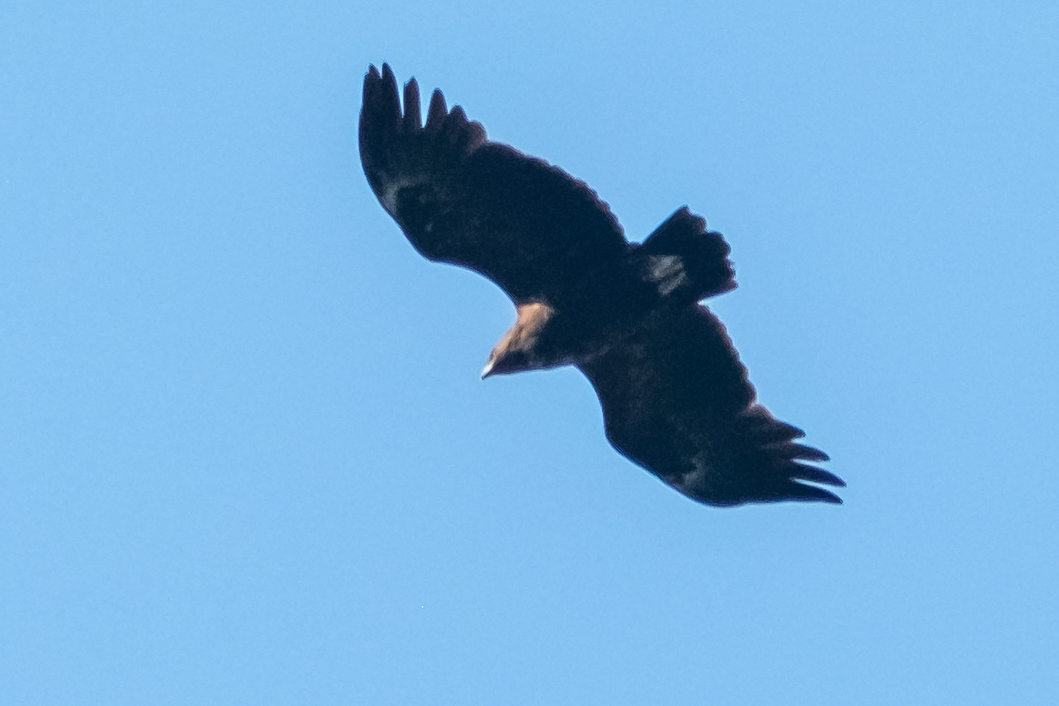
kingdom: Animalia
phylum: Chordata
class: Aves
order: Accipitriformes
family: Accipitridae
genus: Aquila
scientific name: Aquila clanga
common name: Greater spotted eagle
